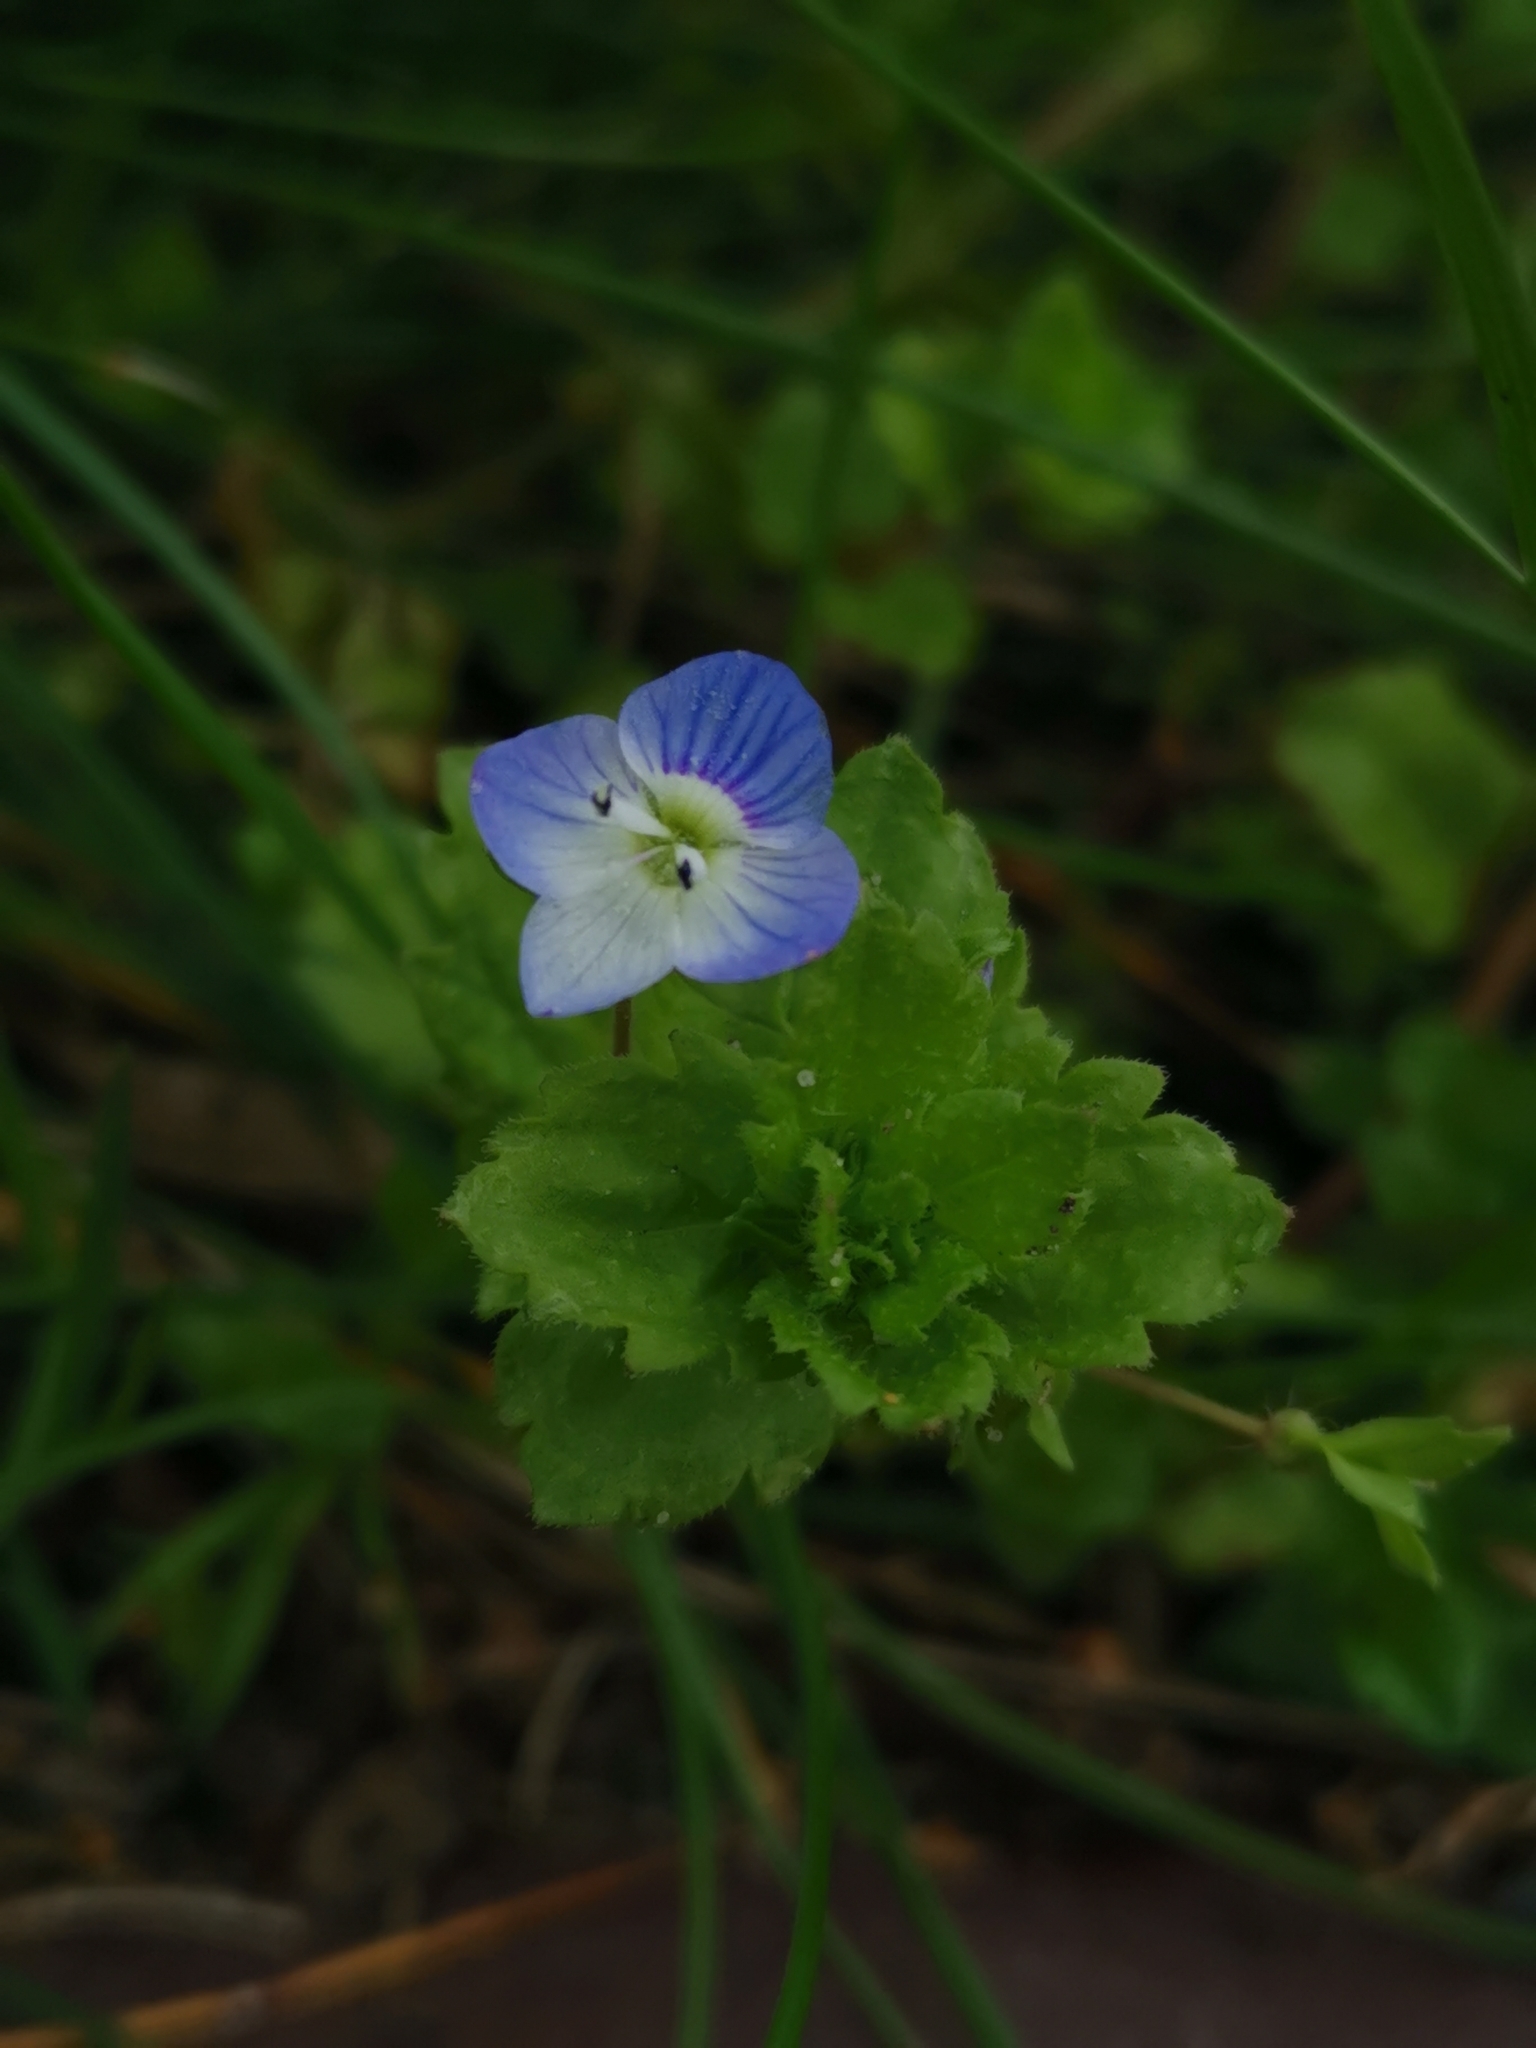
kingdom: Plantae
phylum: Tracheophyta
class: Magnoliopsida
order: Lamiales
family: Plantaginaceae
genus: Veronica
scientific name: Veronica persica
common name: Common field-speedwell
